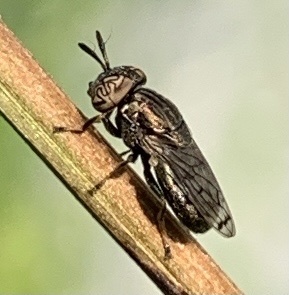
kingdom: Animalia
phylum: Arthropoda
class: Insecta
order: Diptera
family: Syrphidae
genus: Orthonevra
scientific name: Orthonevra nitida
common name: Wavy mucksucker
